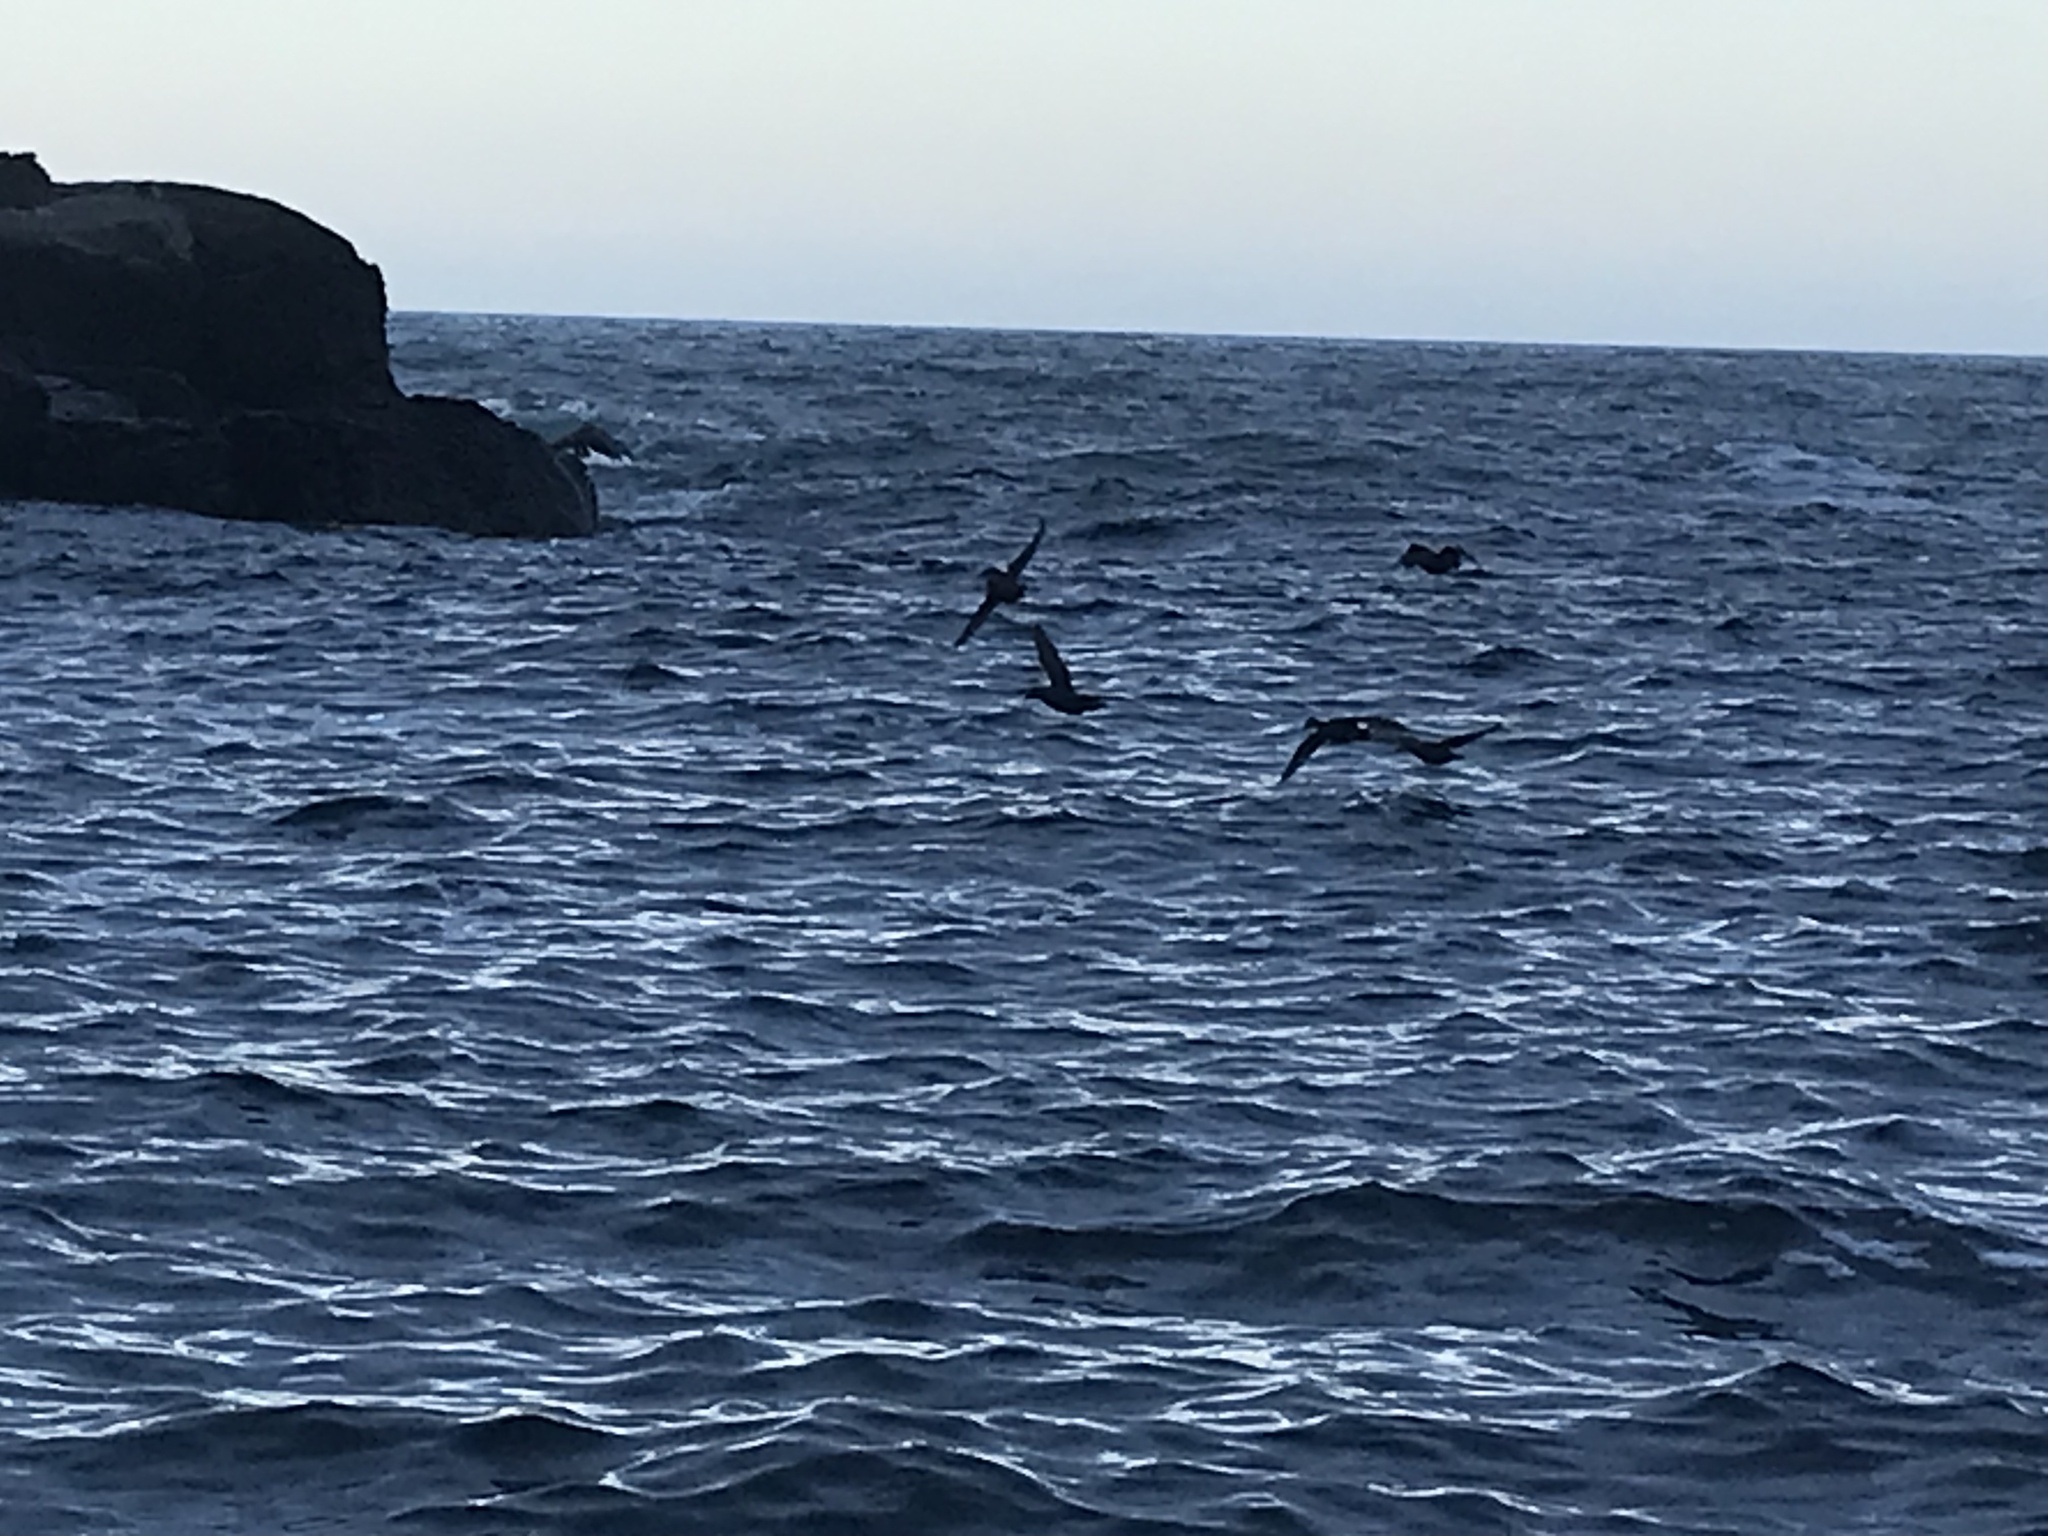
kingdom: Animalia
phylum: Chordata
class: Aves
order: Anseriformes
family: Anatidae
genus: Somateria
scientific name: Somateria mollissima
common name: Common eider
